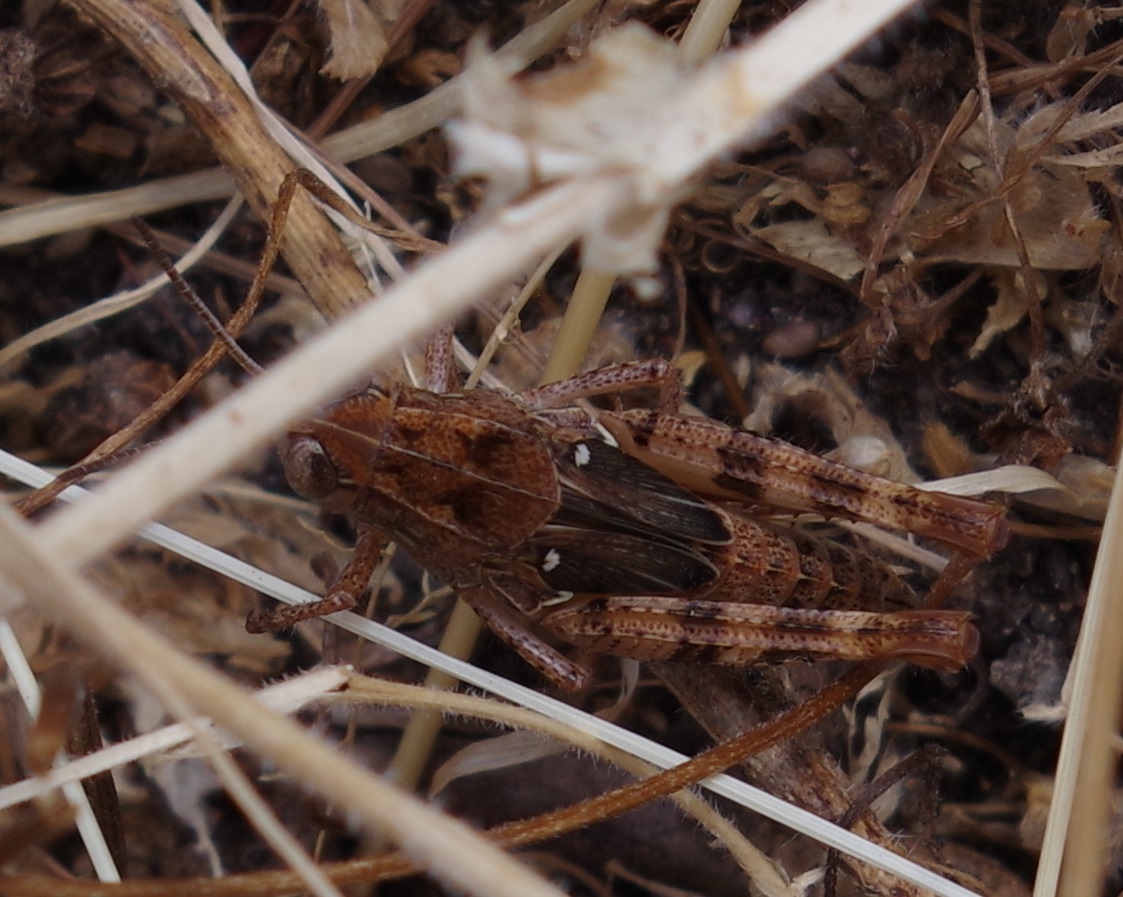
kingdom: Animalia
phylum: Arthropoda
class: Insecta
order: Orthoptera
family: Acrididae
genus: Calliptamus
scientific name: Calliptamus italicus
